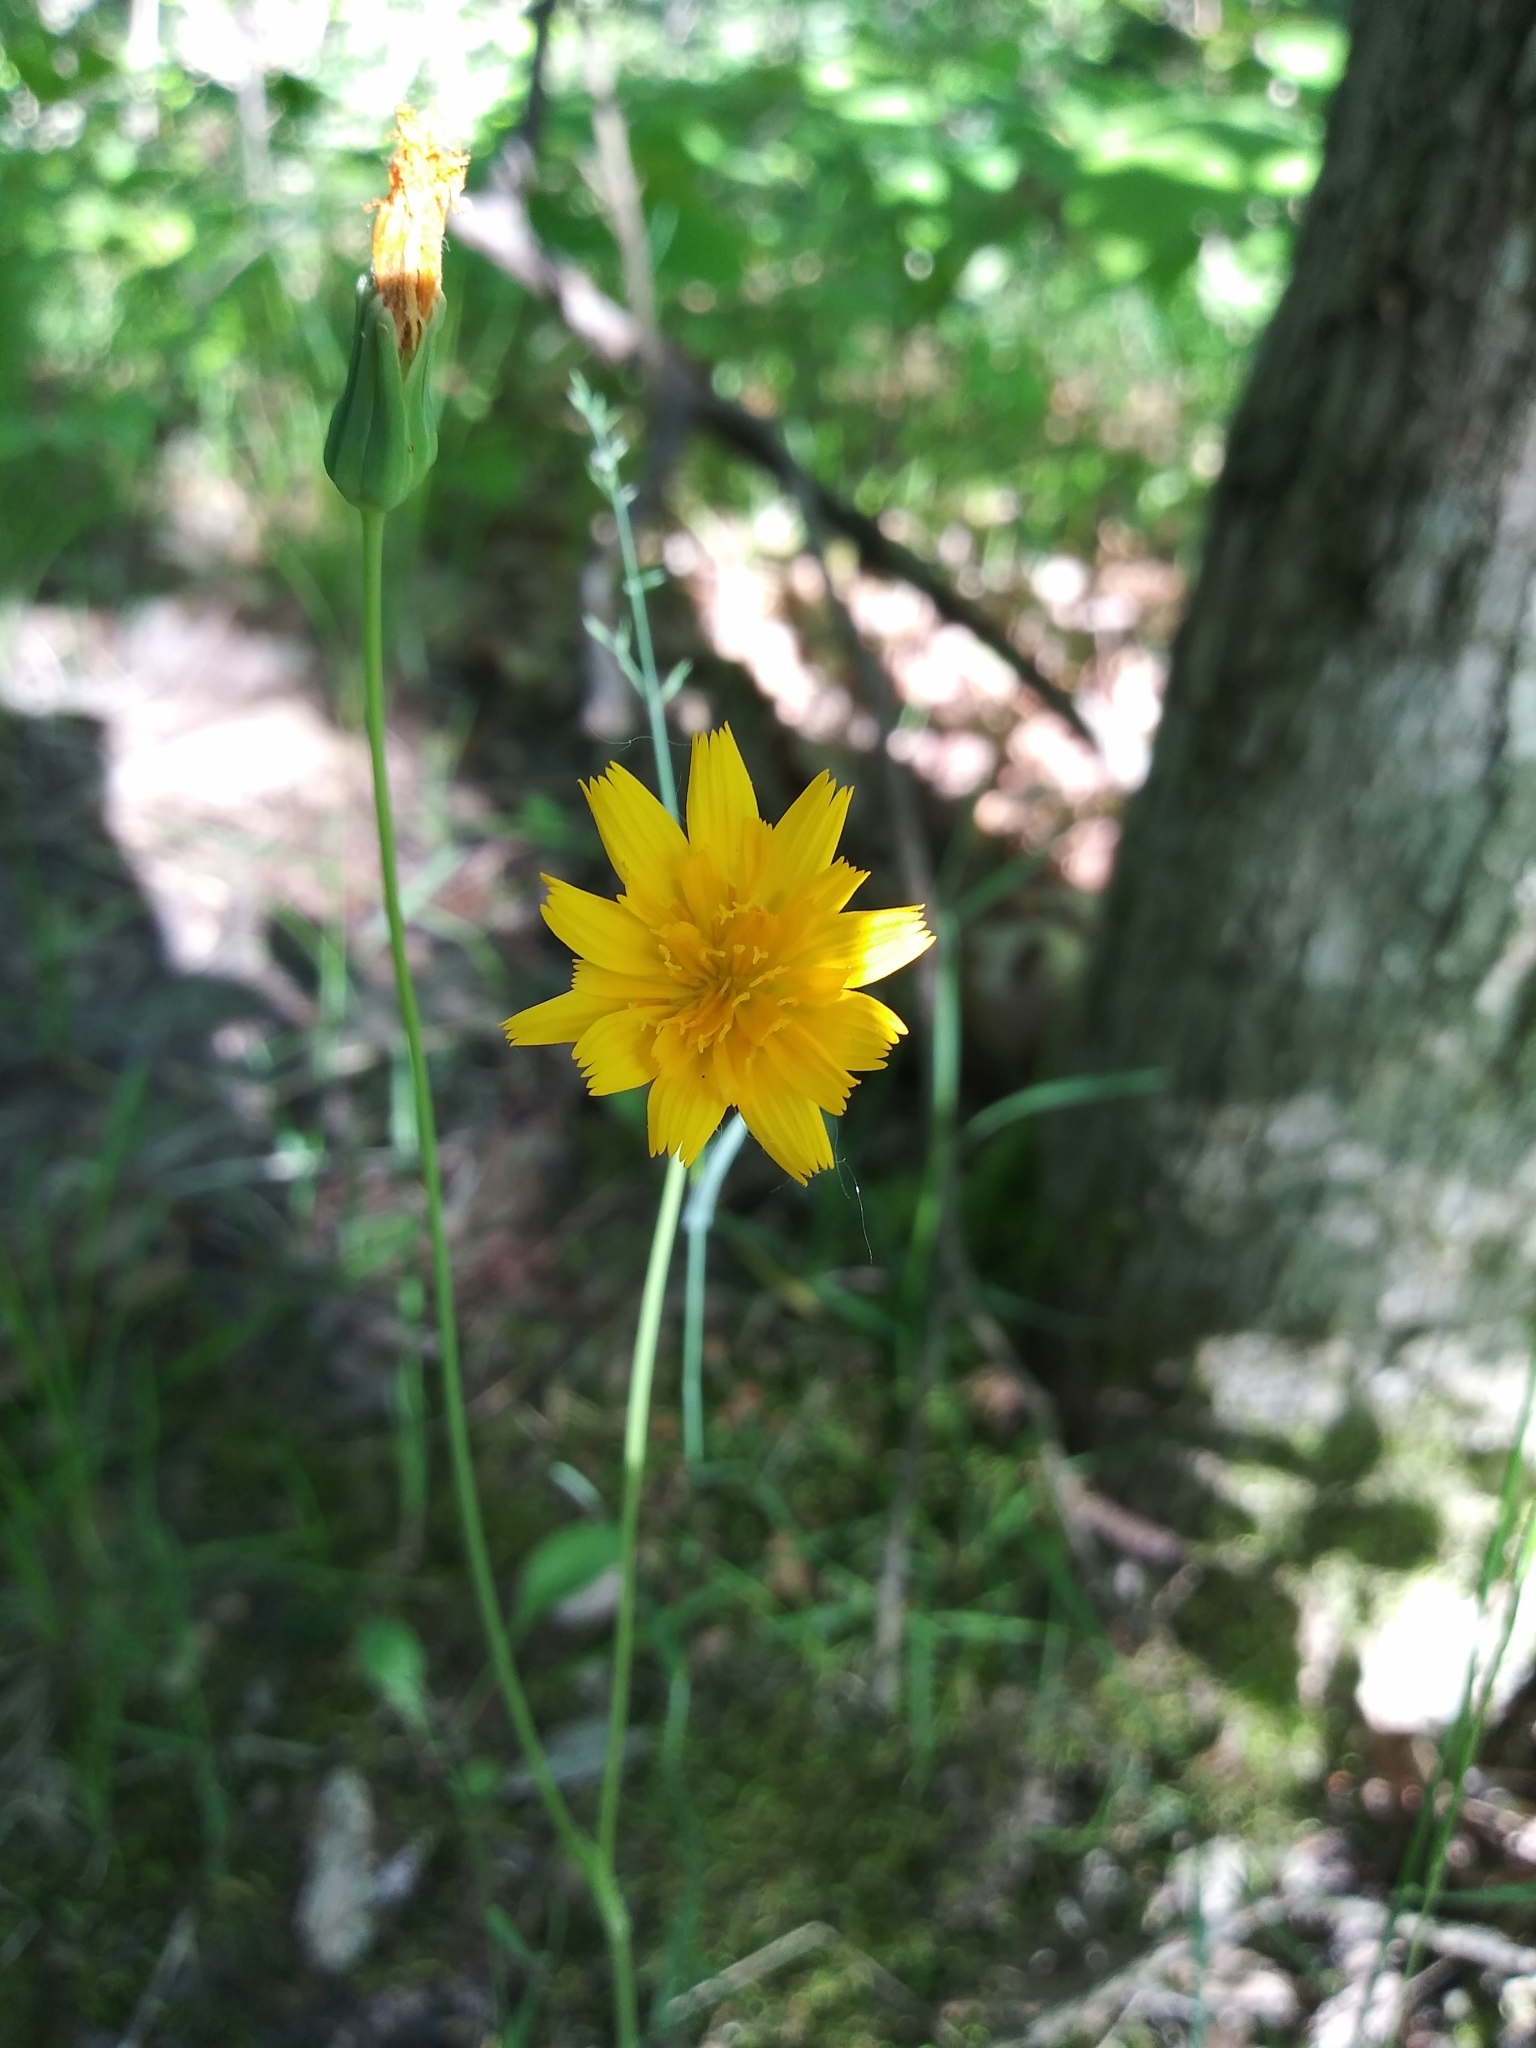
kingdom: Plantae
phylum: Tracheophyta
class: Magnoliopsida
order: Asterales
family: Asteraceae
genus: Krigia
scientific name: Krigia biflora
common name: Orange dwarf-dandelion
